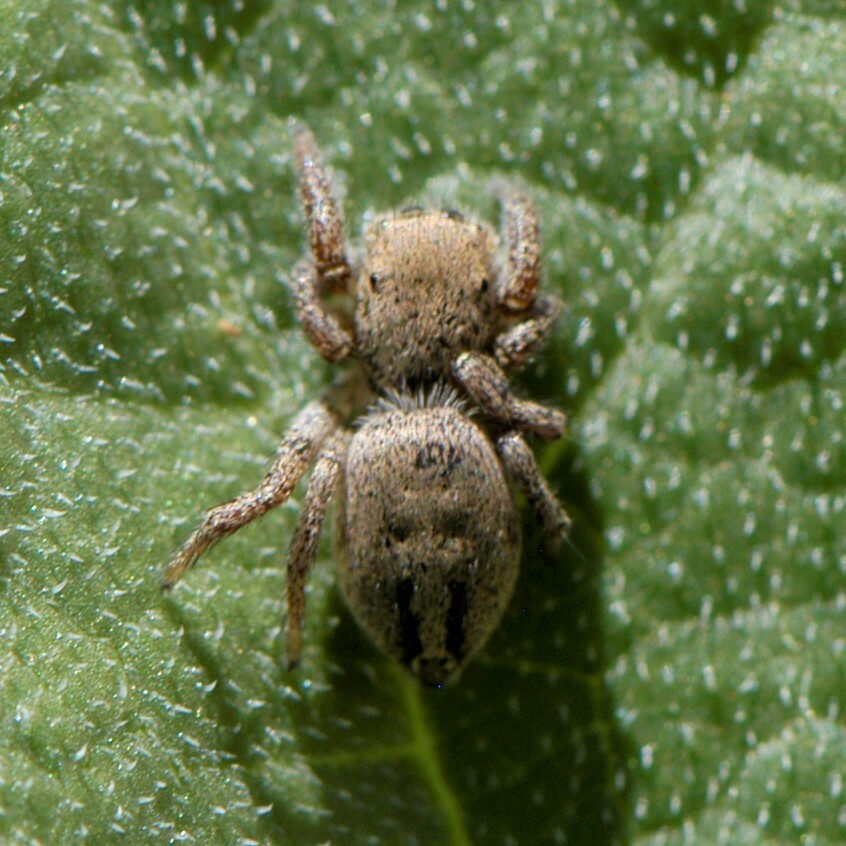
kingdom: Animalia
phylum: Arthropoda
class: Arachnida
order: Araneae
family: Salticidae
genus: Habronattus
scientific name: Habronattus klauseri
